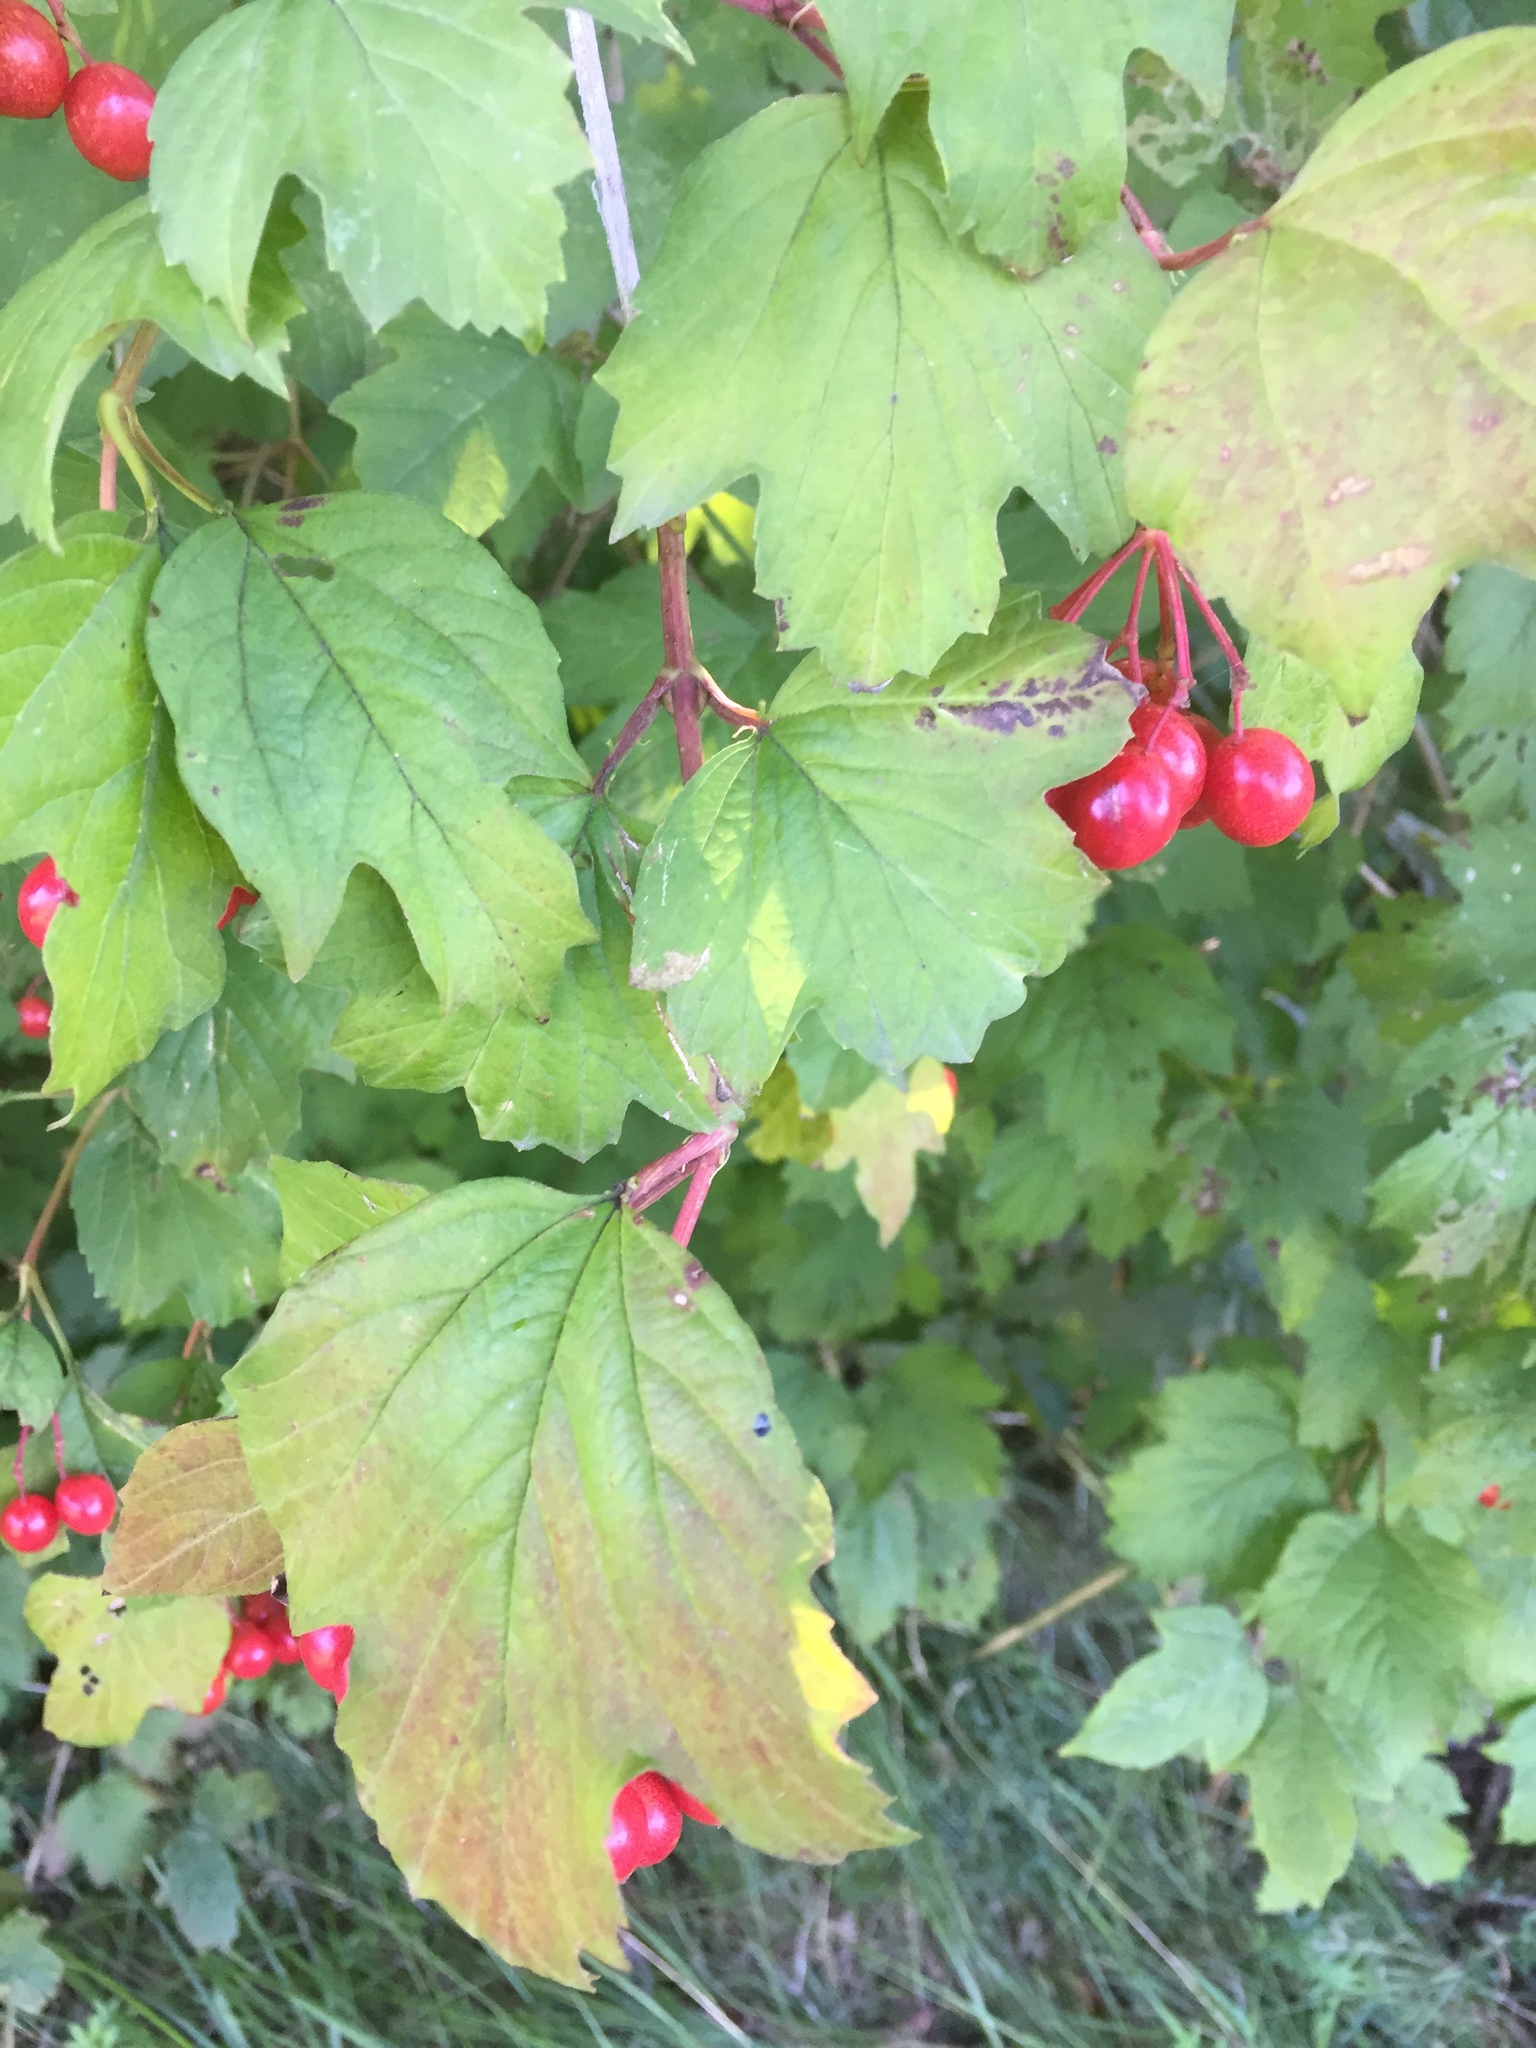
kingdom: Plantae
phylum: Tracheophyta
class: Magnoliopsida
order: Dipsacales
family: Viburnaceae
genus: Viburnum
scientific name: Viburnum opulus
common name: Guelder-rose
